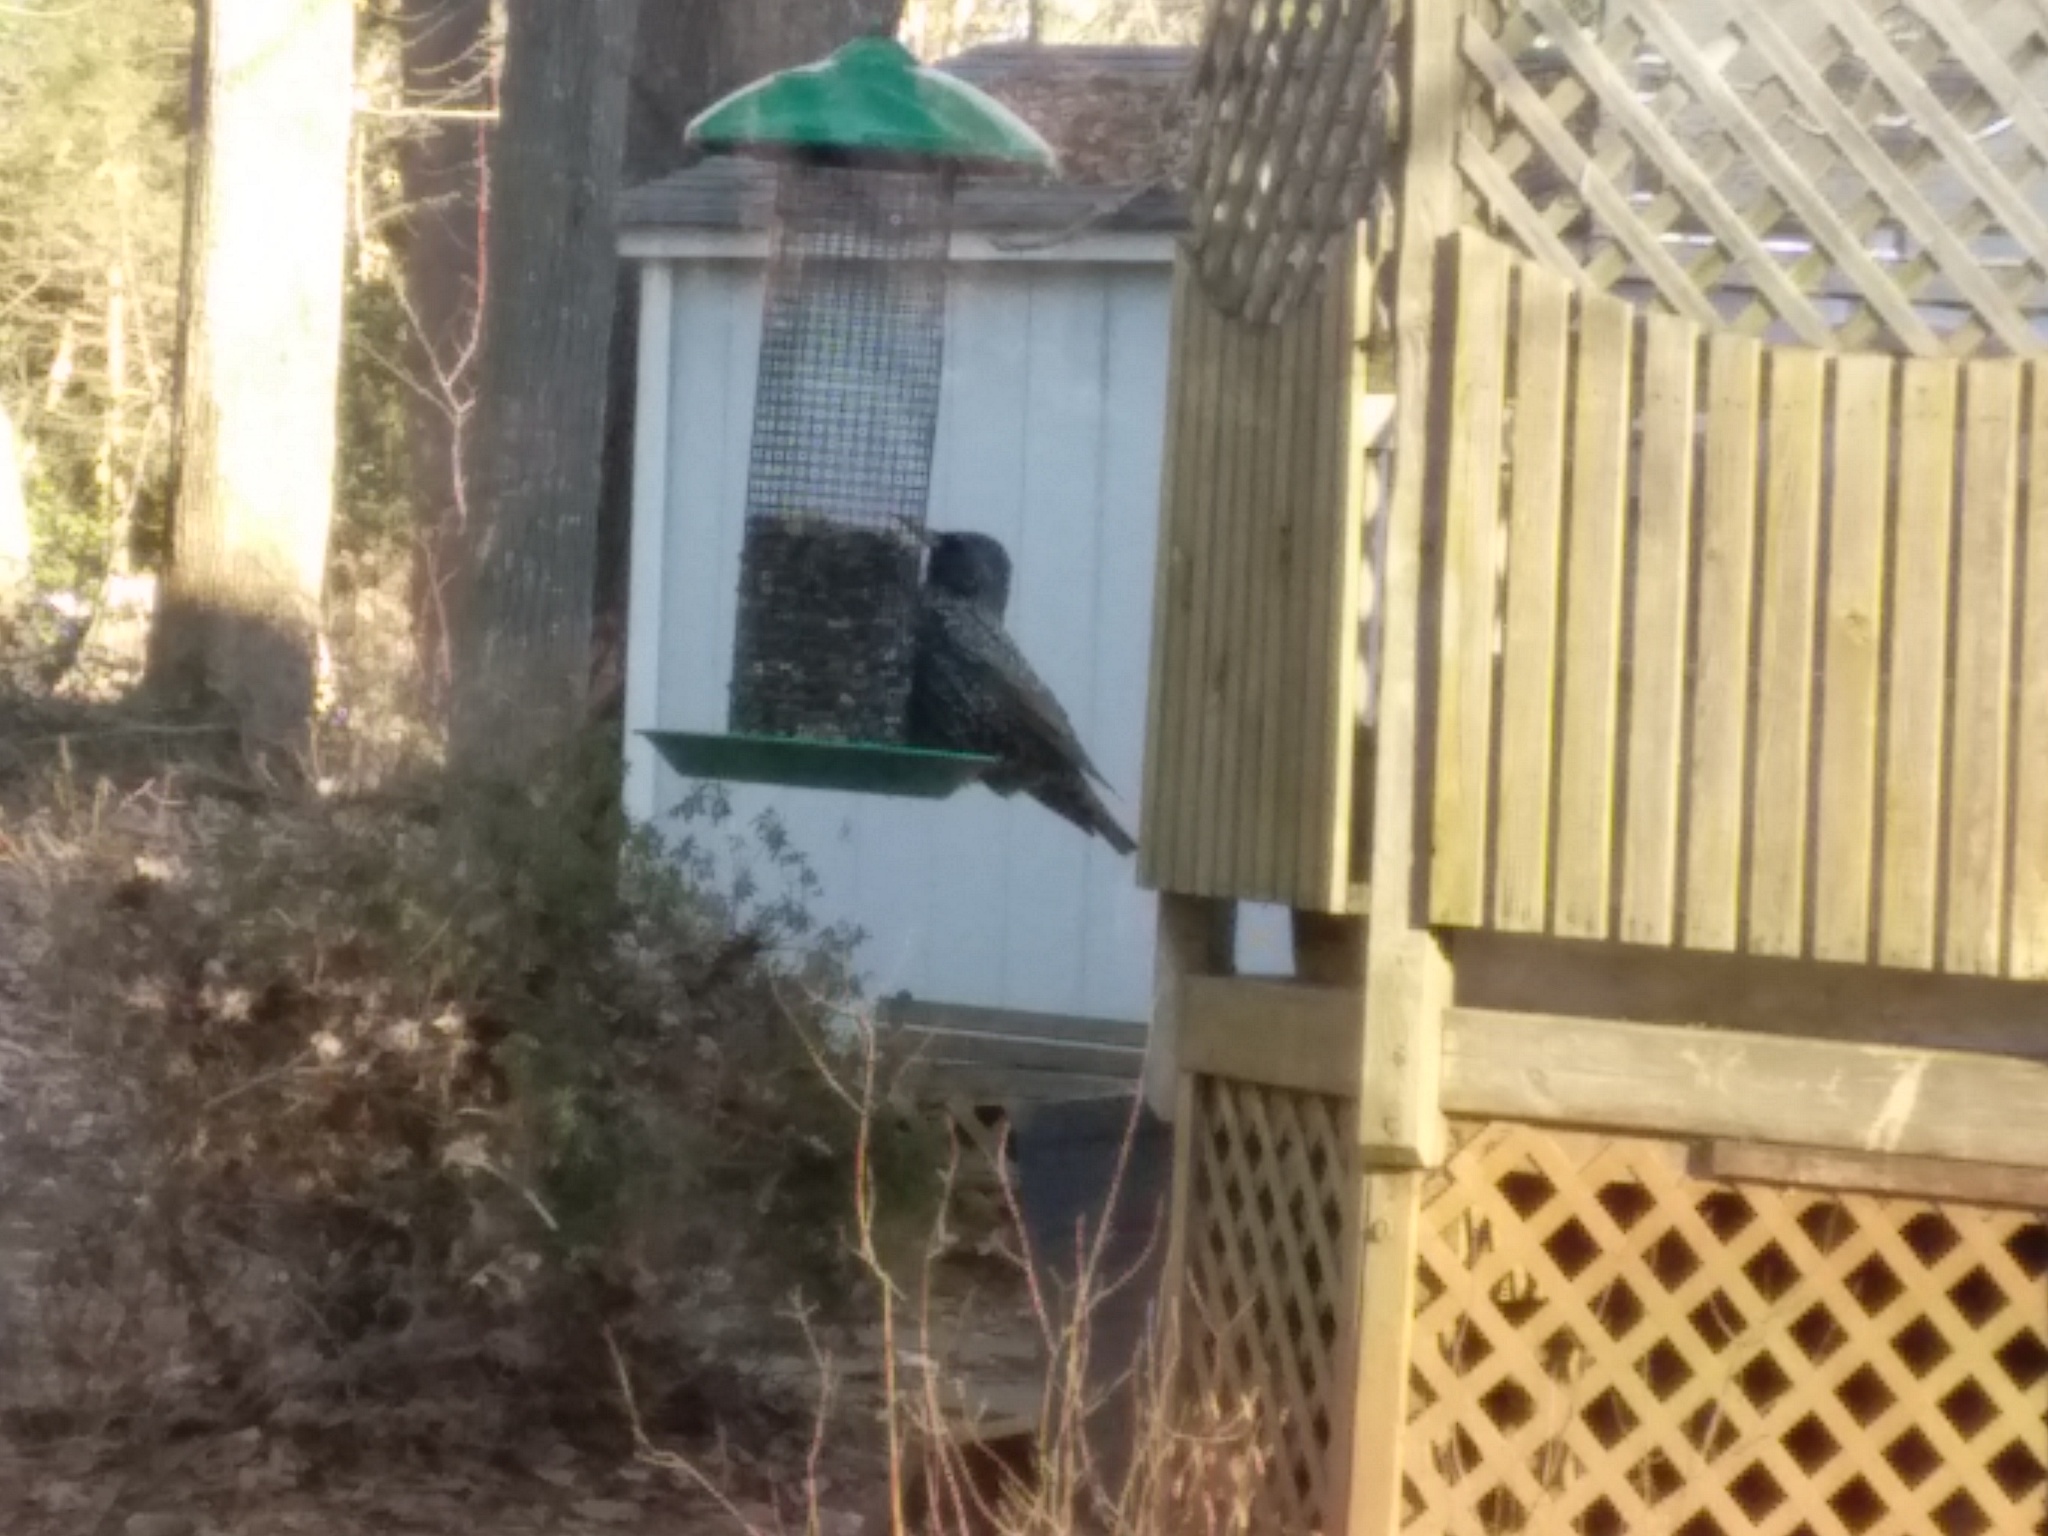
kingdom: Animalia
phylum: Chordata
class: Aves
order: Passeriformes
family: Sturnidae
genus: Sturnus
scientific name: Sturnus vulgaris
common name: Common starling
